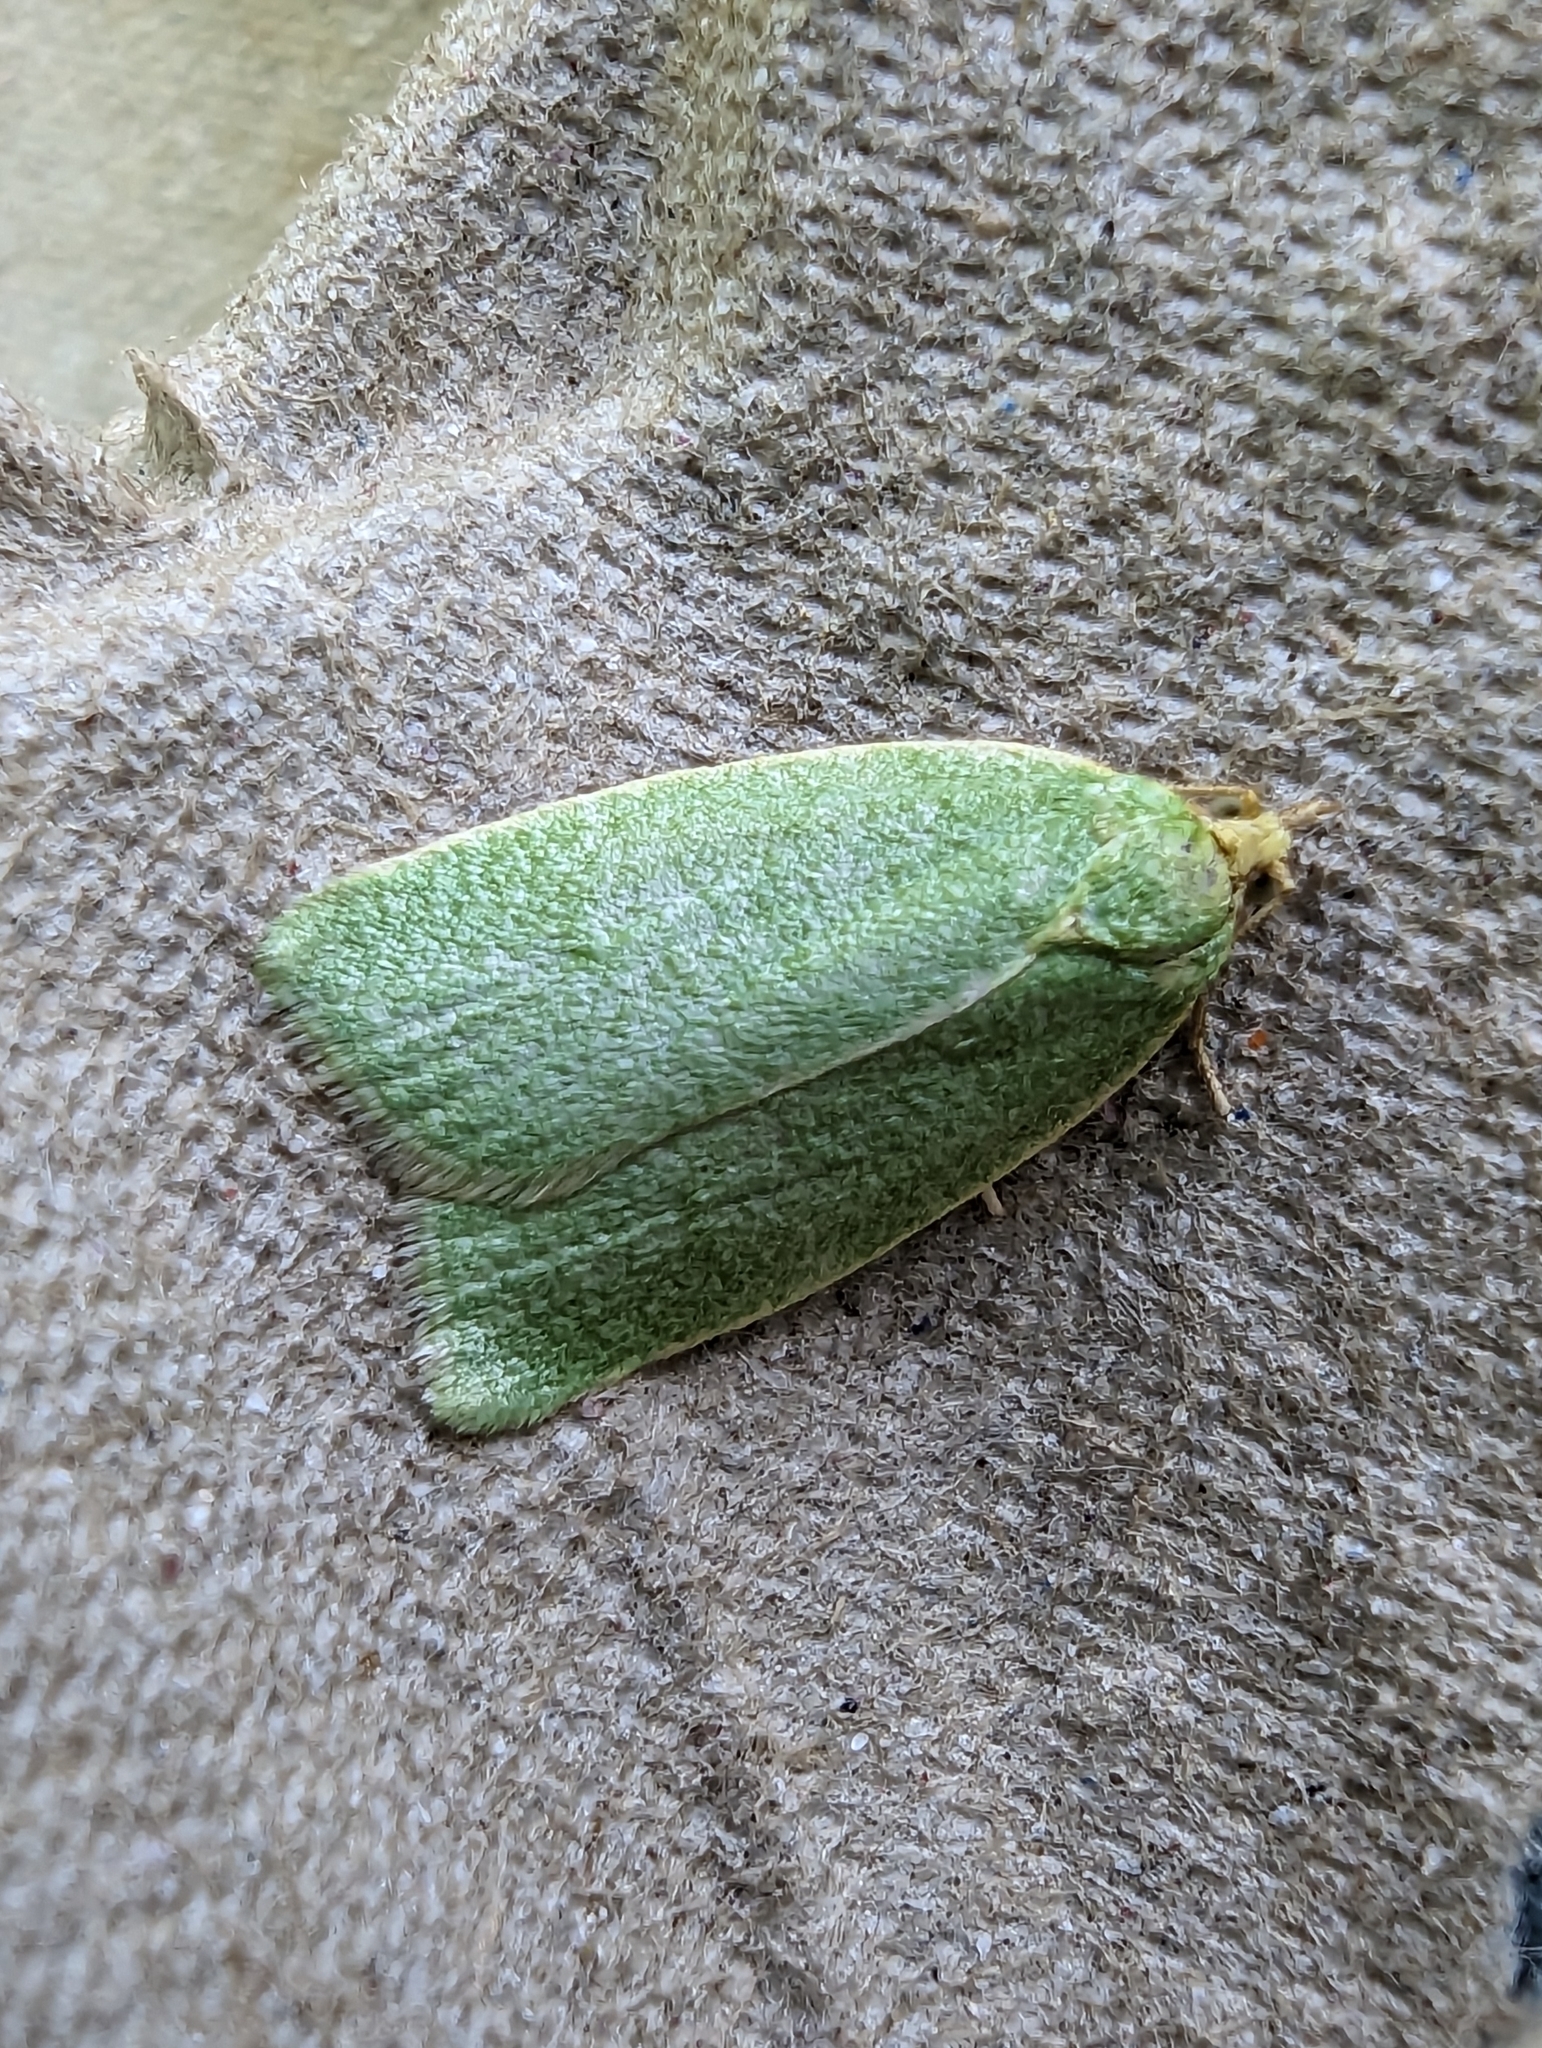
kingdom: Animalia
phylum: Arthropoda
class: Insecta
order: Lepidoptera
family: Tortricidae
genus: Tortrix
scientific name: Tortrix viridana
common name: Green oak tortrix
